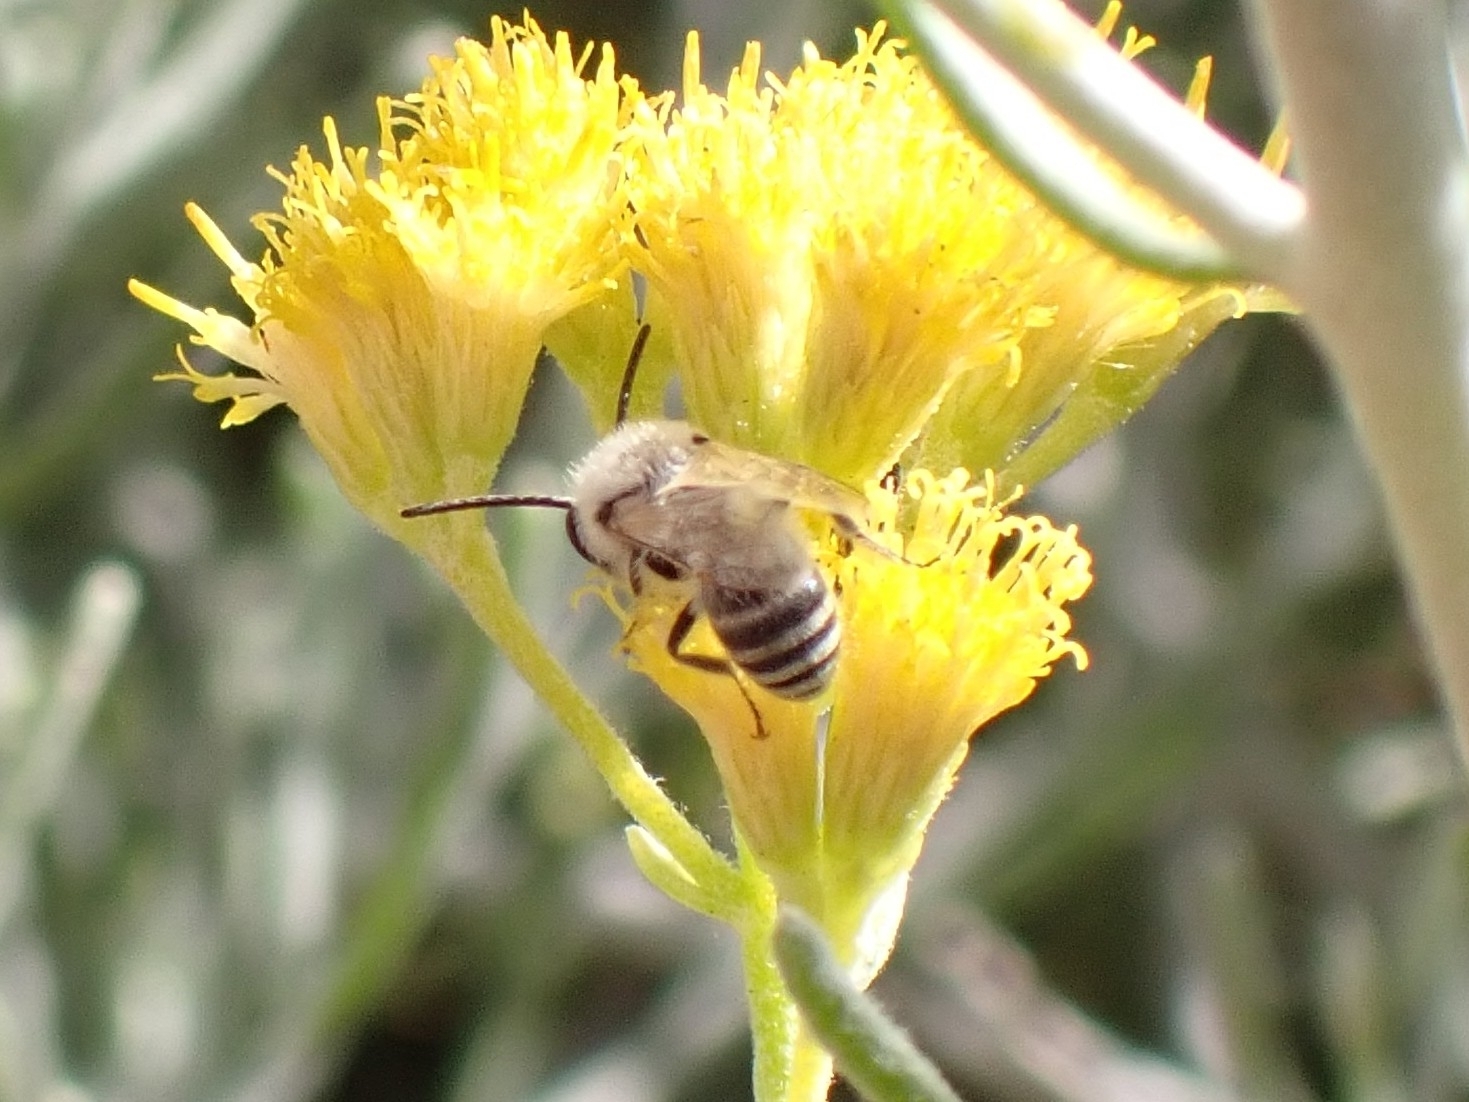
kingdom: Animalia
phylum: Arthropoda
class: Insecta
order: Hymenoptera
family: Colletidae
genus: Colletes
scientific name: Colletes moricei
